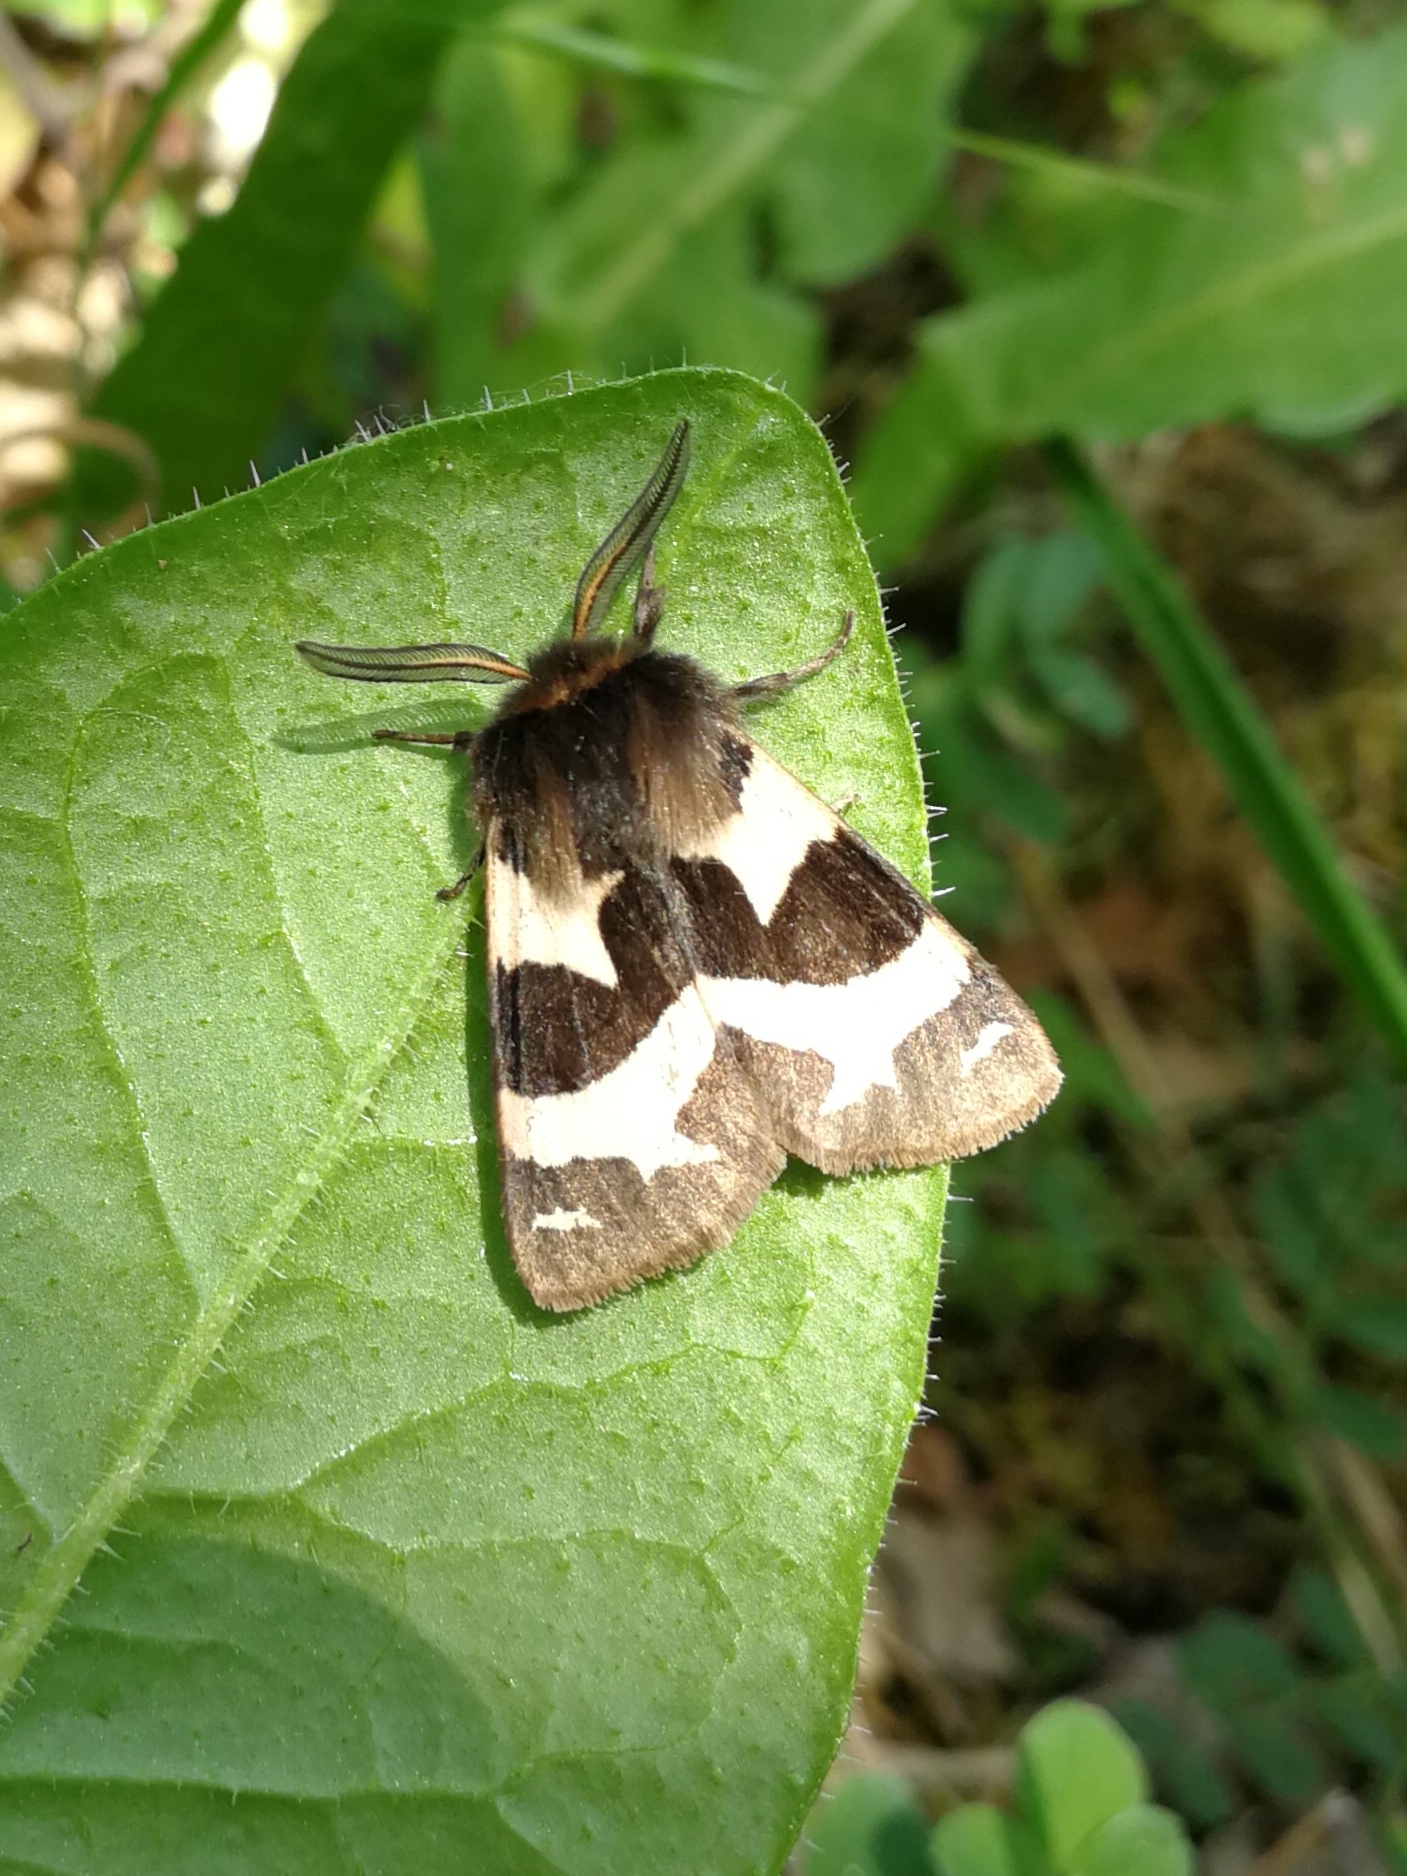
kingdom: Animalia
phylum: Arthropoda
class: Insecta
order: Lepidoptera
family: Erebidae
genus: Watsonarctia
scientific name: Watsonarctia deserta
